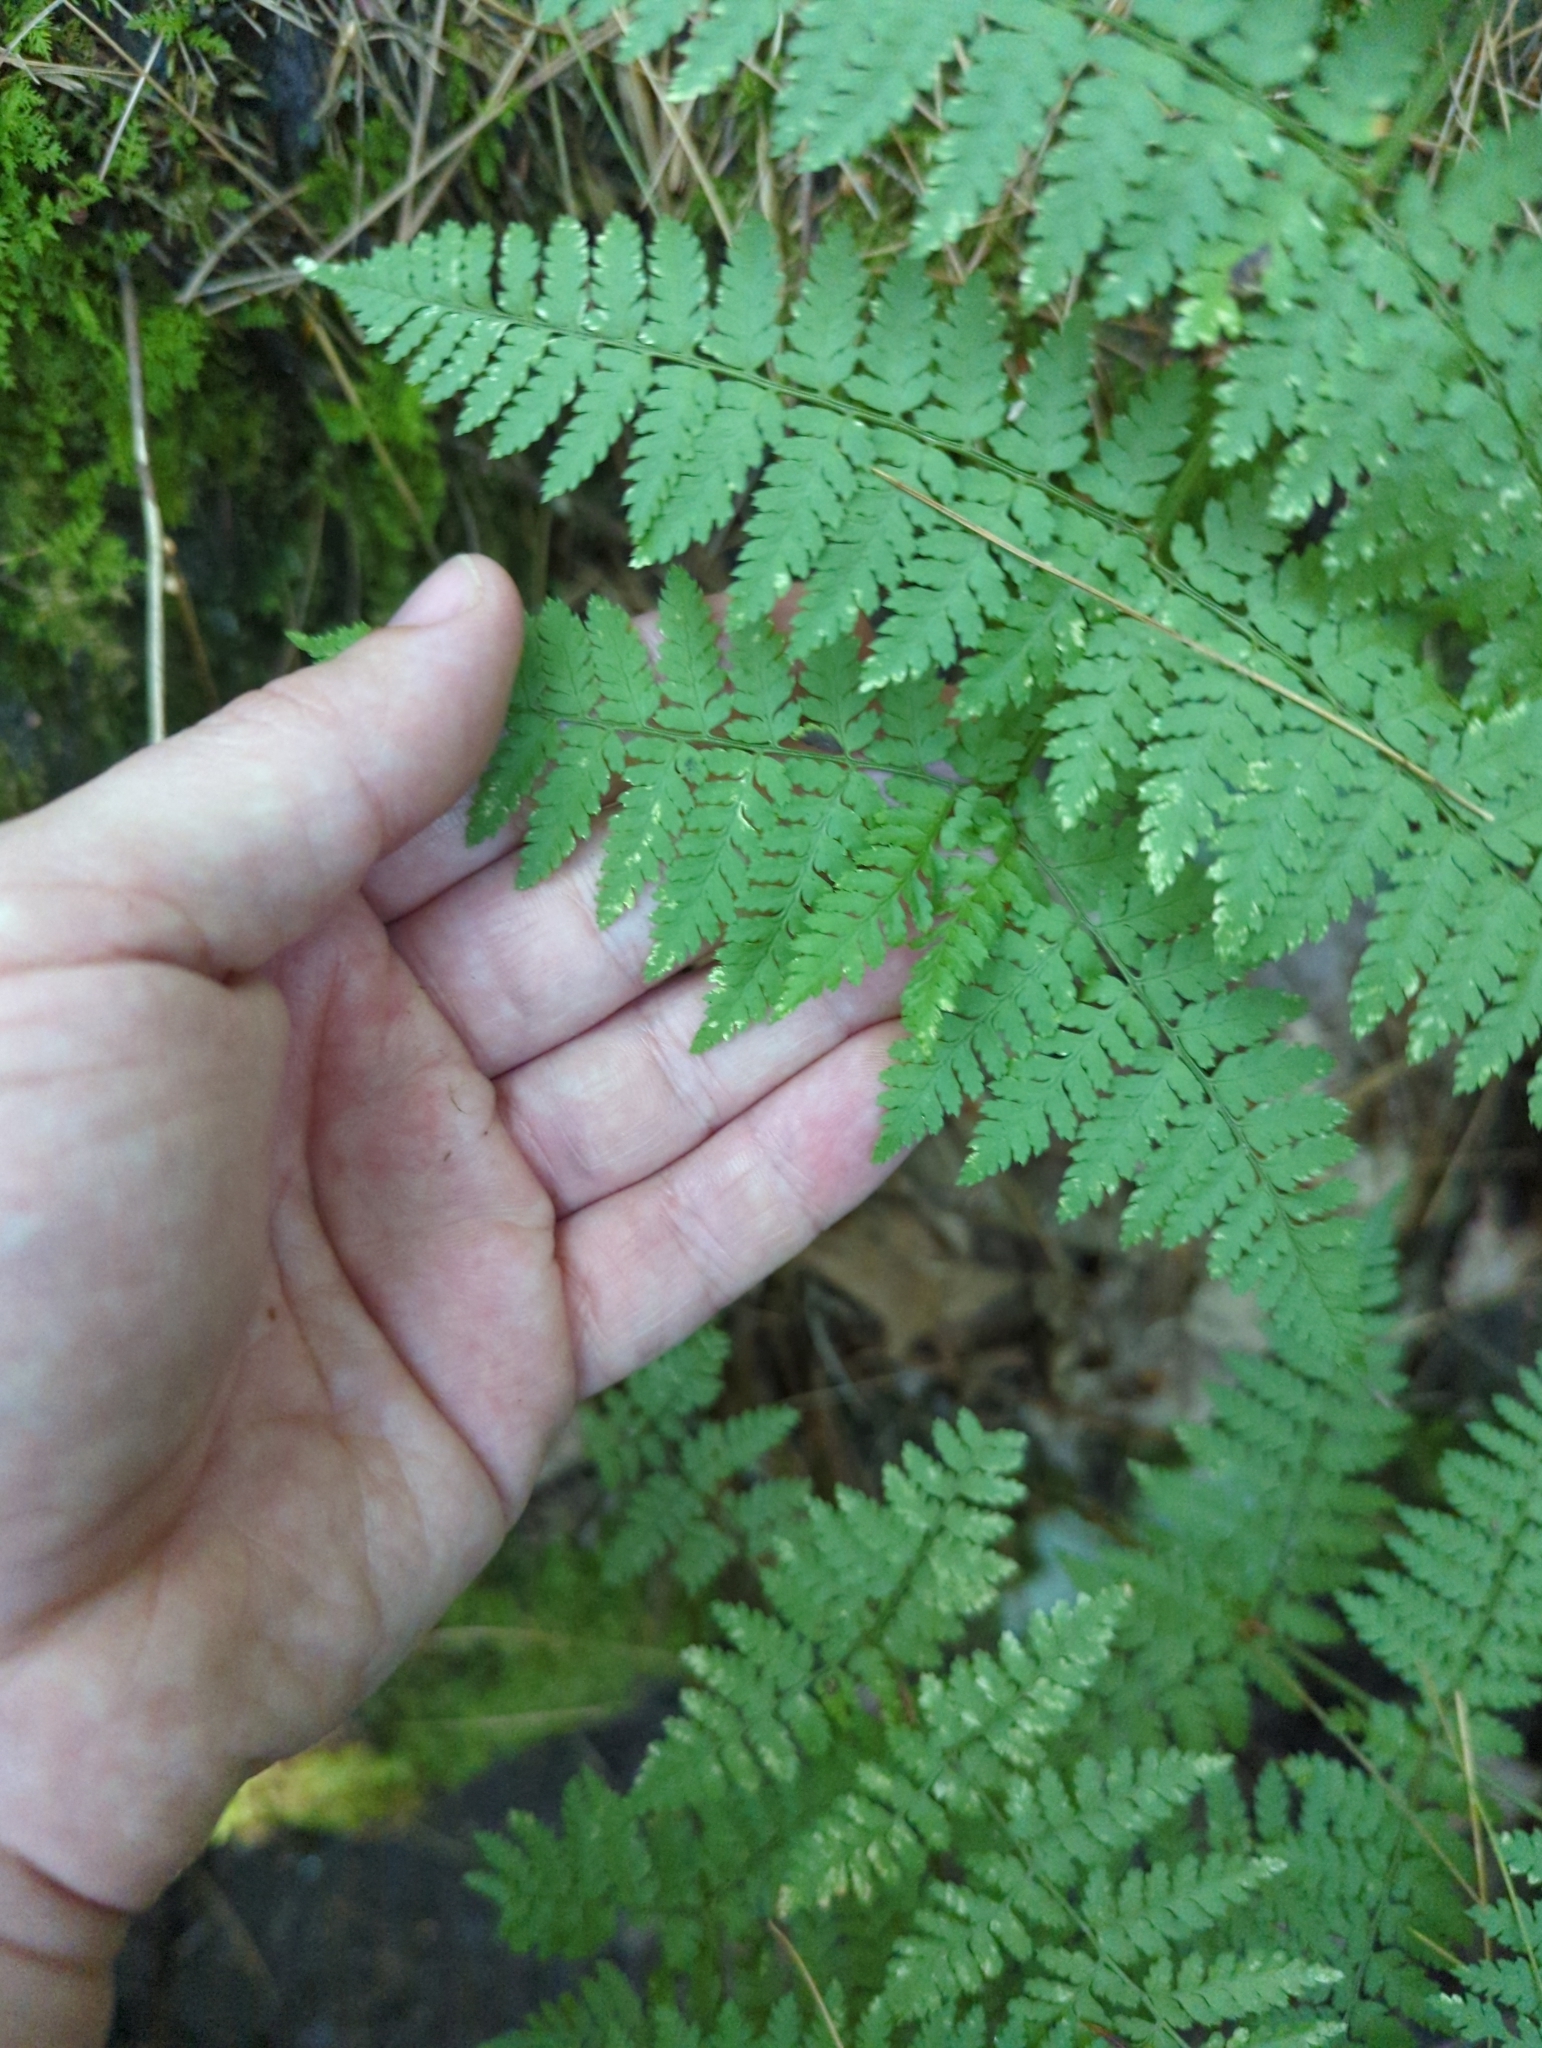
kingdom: Plantae
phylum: Tracheophyta
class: Polypodiopsida
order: Polypodiales
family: Dryopteridaceae
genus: Dryopteris
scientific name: Dryopteris intermedia
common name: Evergreen wood fern
